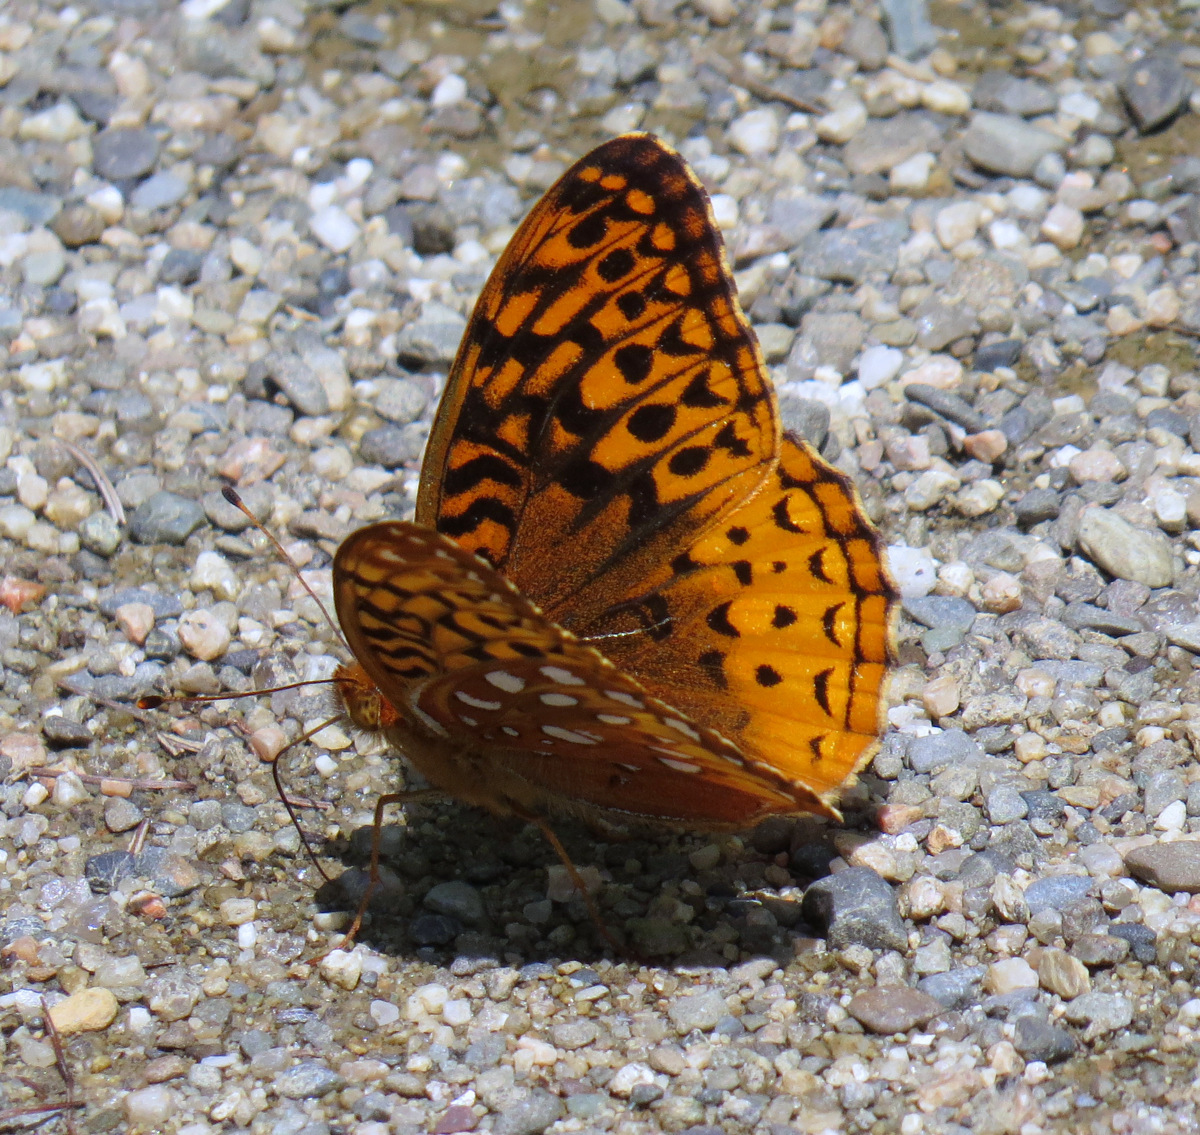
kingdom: Animalia
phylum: Arthropoda
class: Insecta
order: Lepidoptera
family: Nymphalidae
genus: Speyeria
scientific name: Speyeria cybele
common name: Great spangled fritillary
